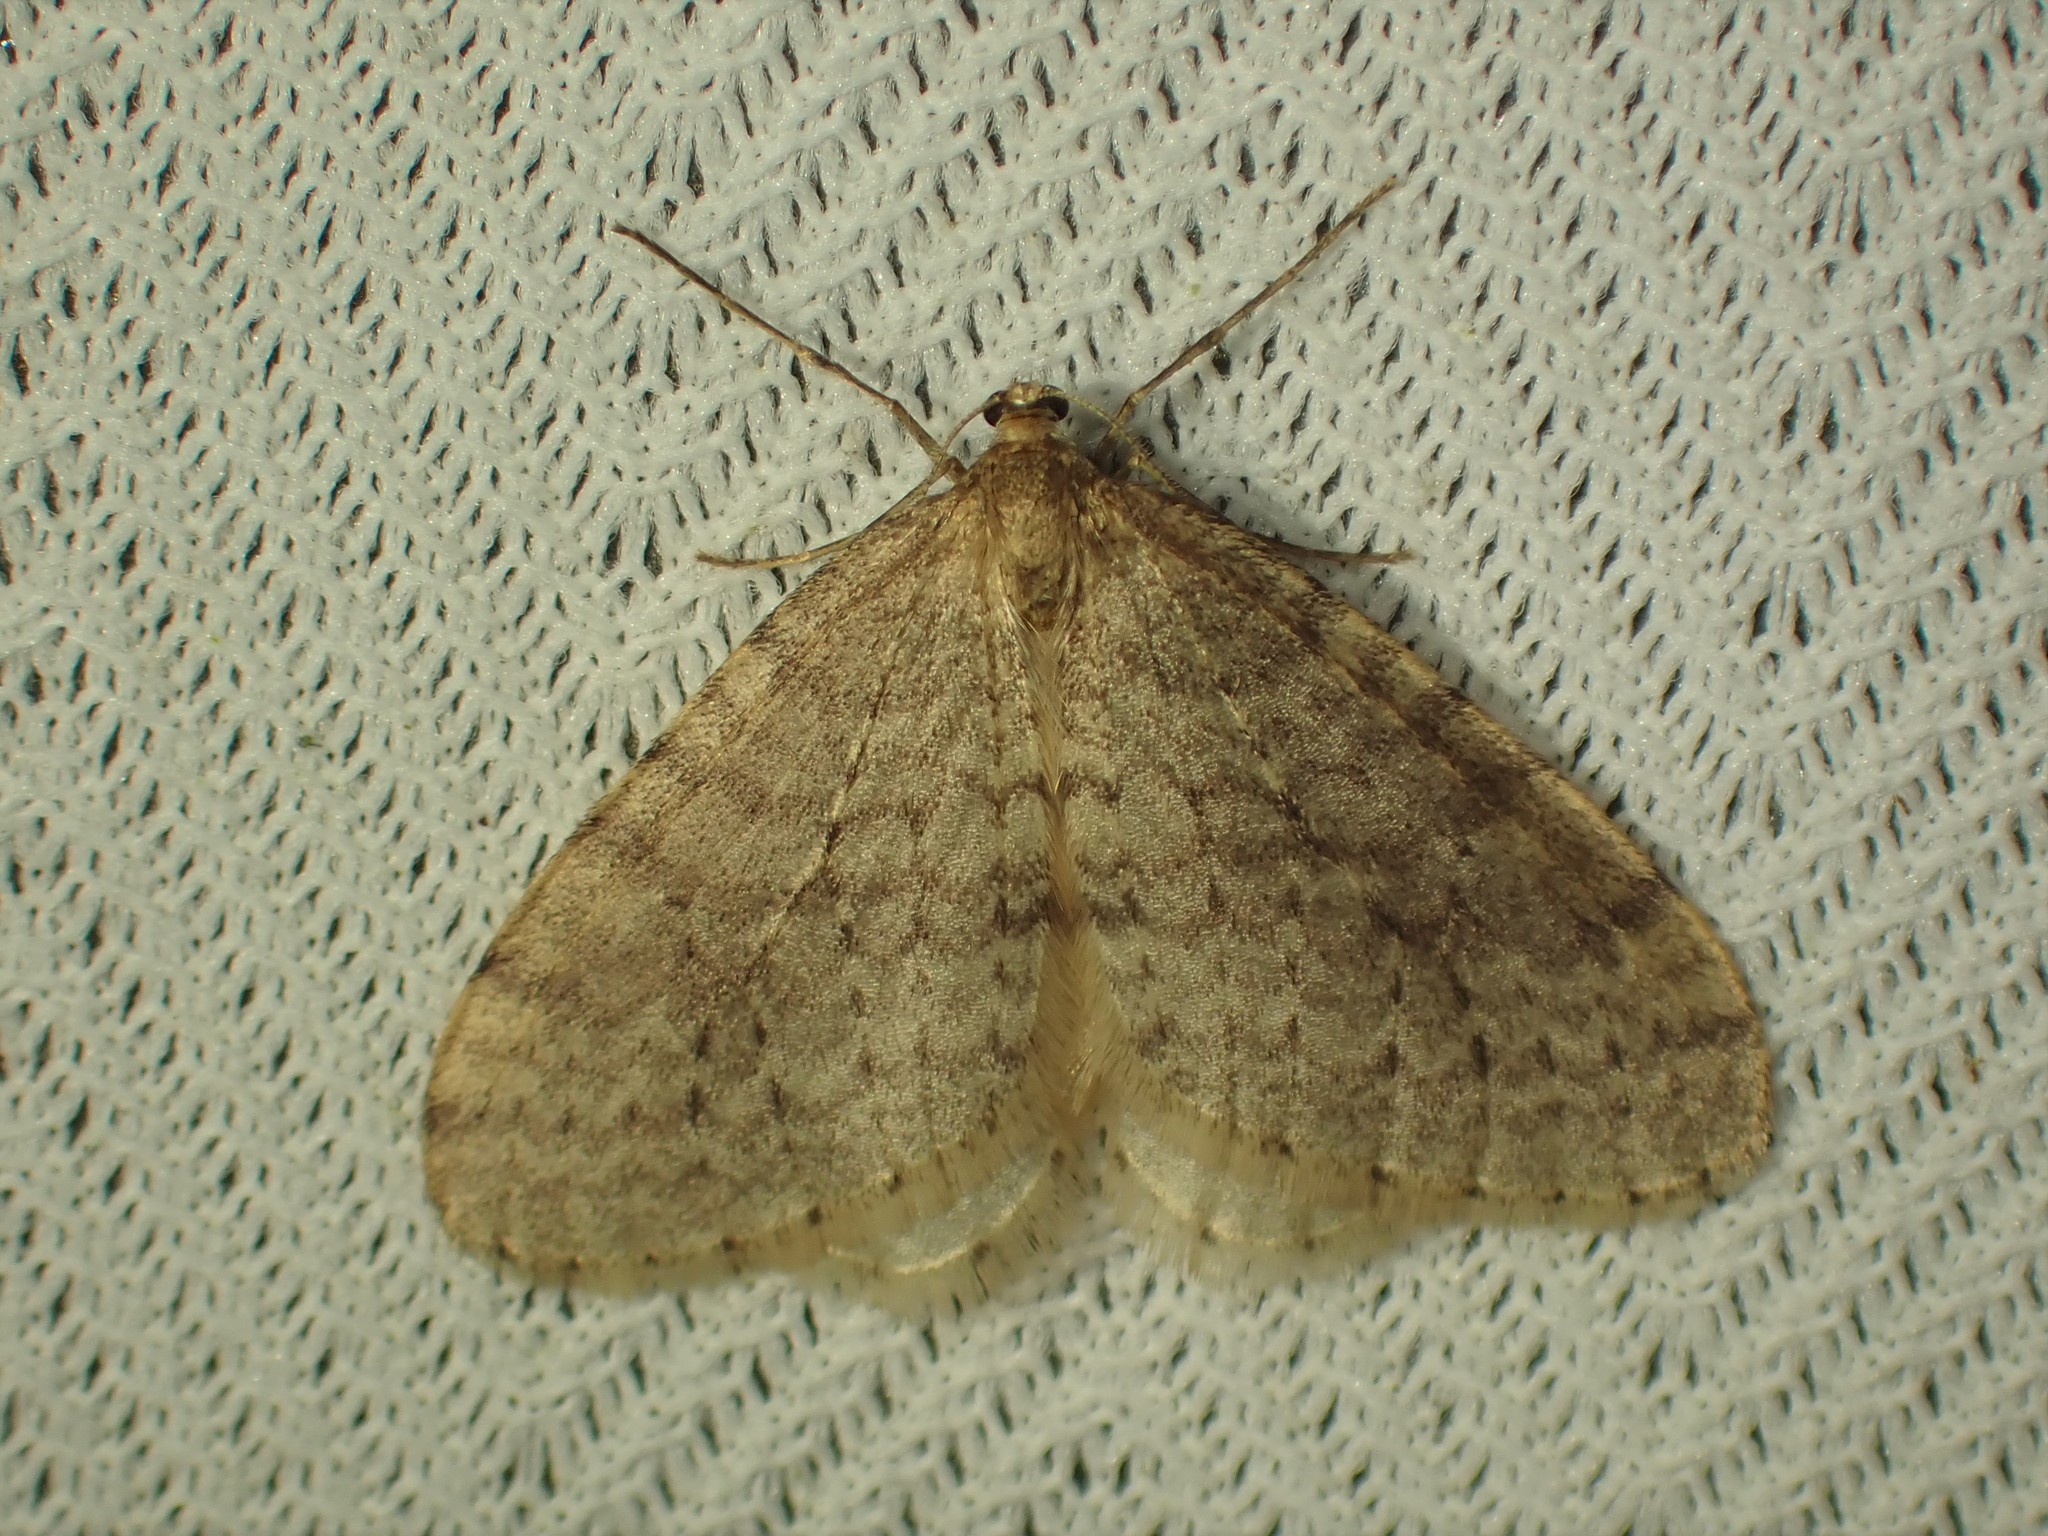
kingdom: Animalia
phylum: Arthropoda
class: Insecta
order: Lepidoptera
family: Geometridae
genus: Operophtera
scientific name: Operophtera bruceata
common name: Bruce spanworm
